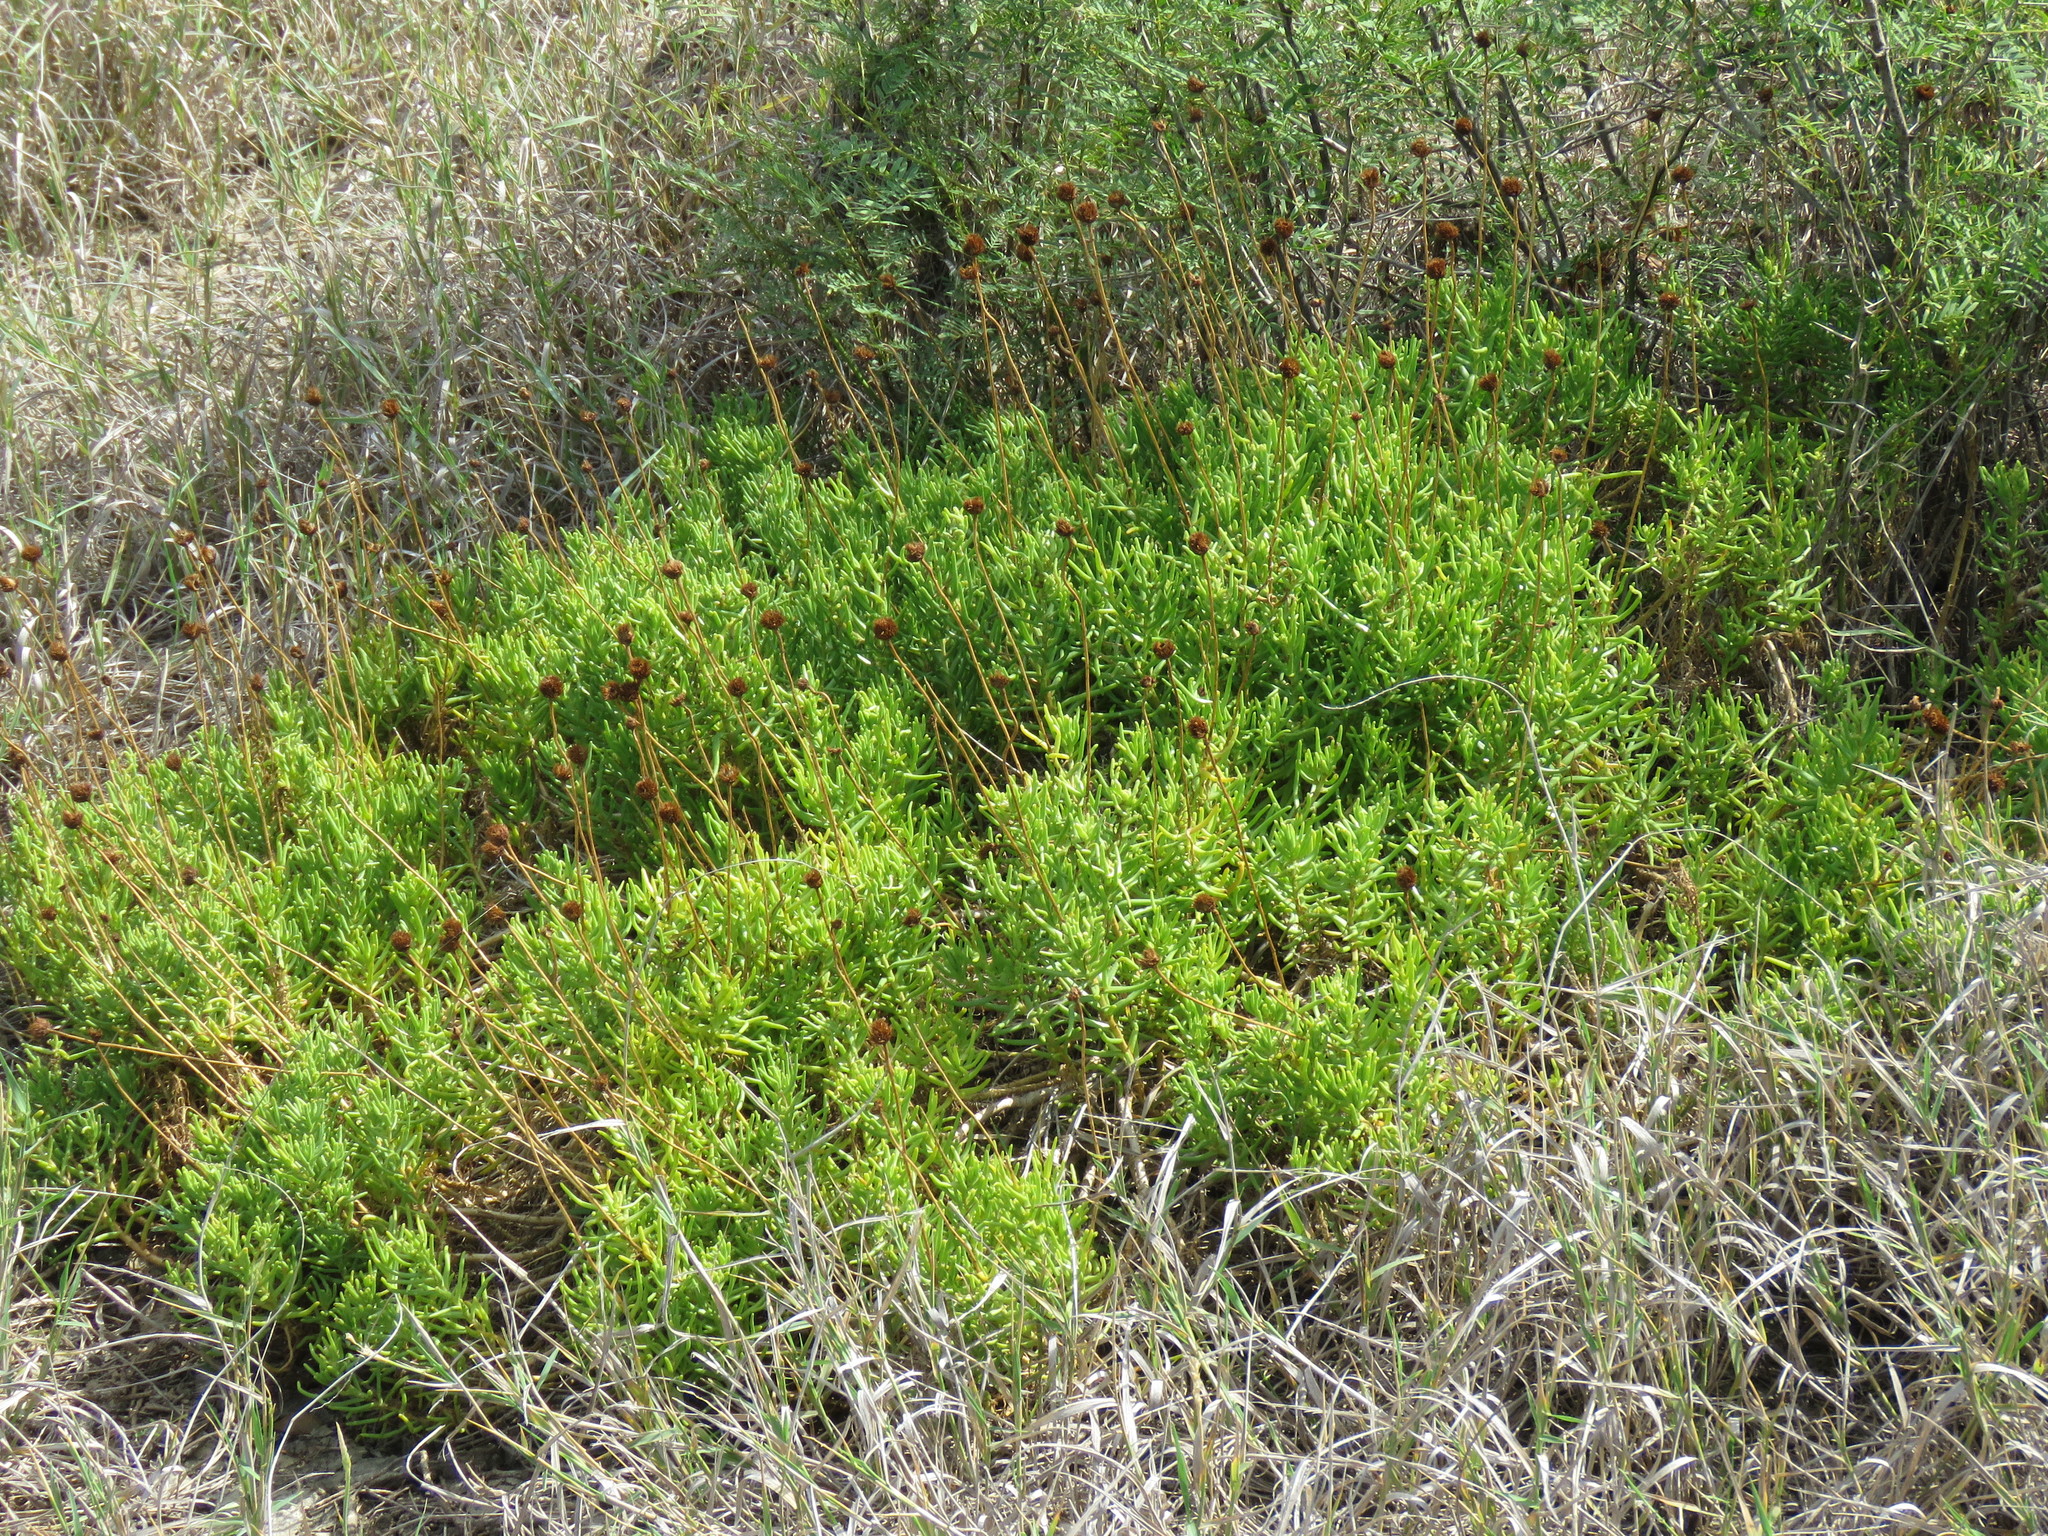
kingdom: Plantae
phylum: Tracheophyta
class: Magnoliopsida
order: Asterales
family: Asteraceae
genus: Varilla
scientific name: Varilla texana
